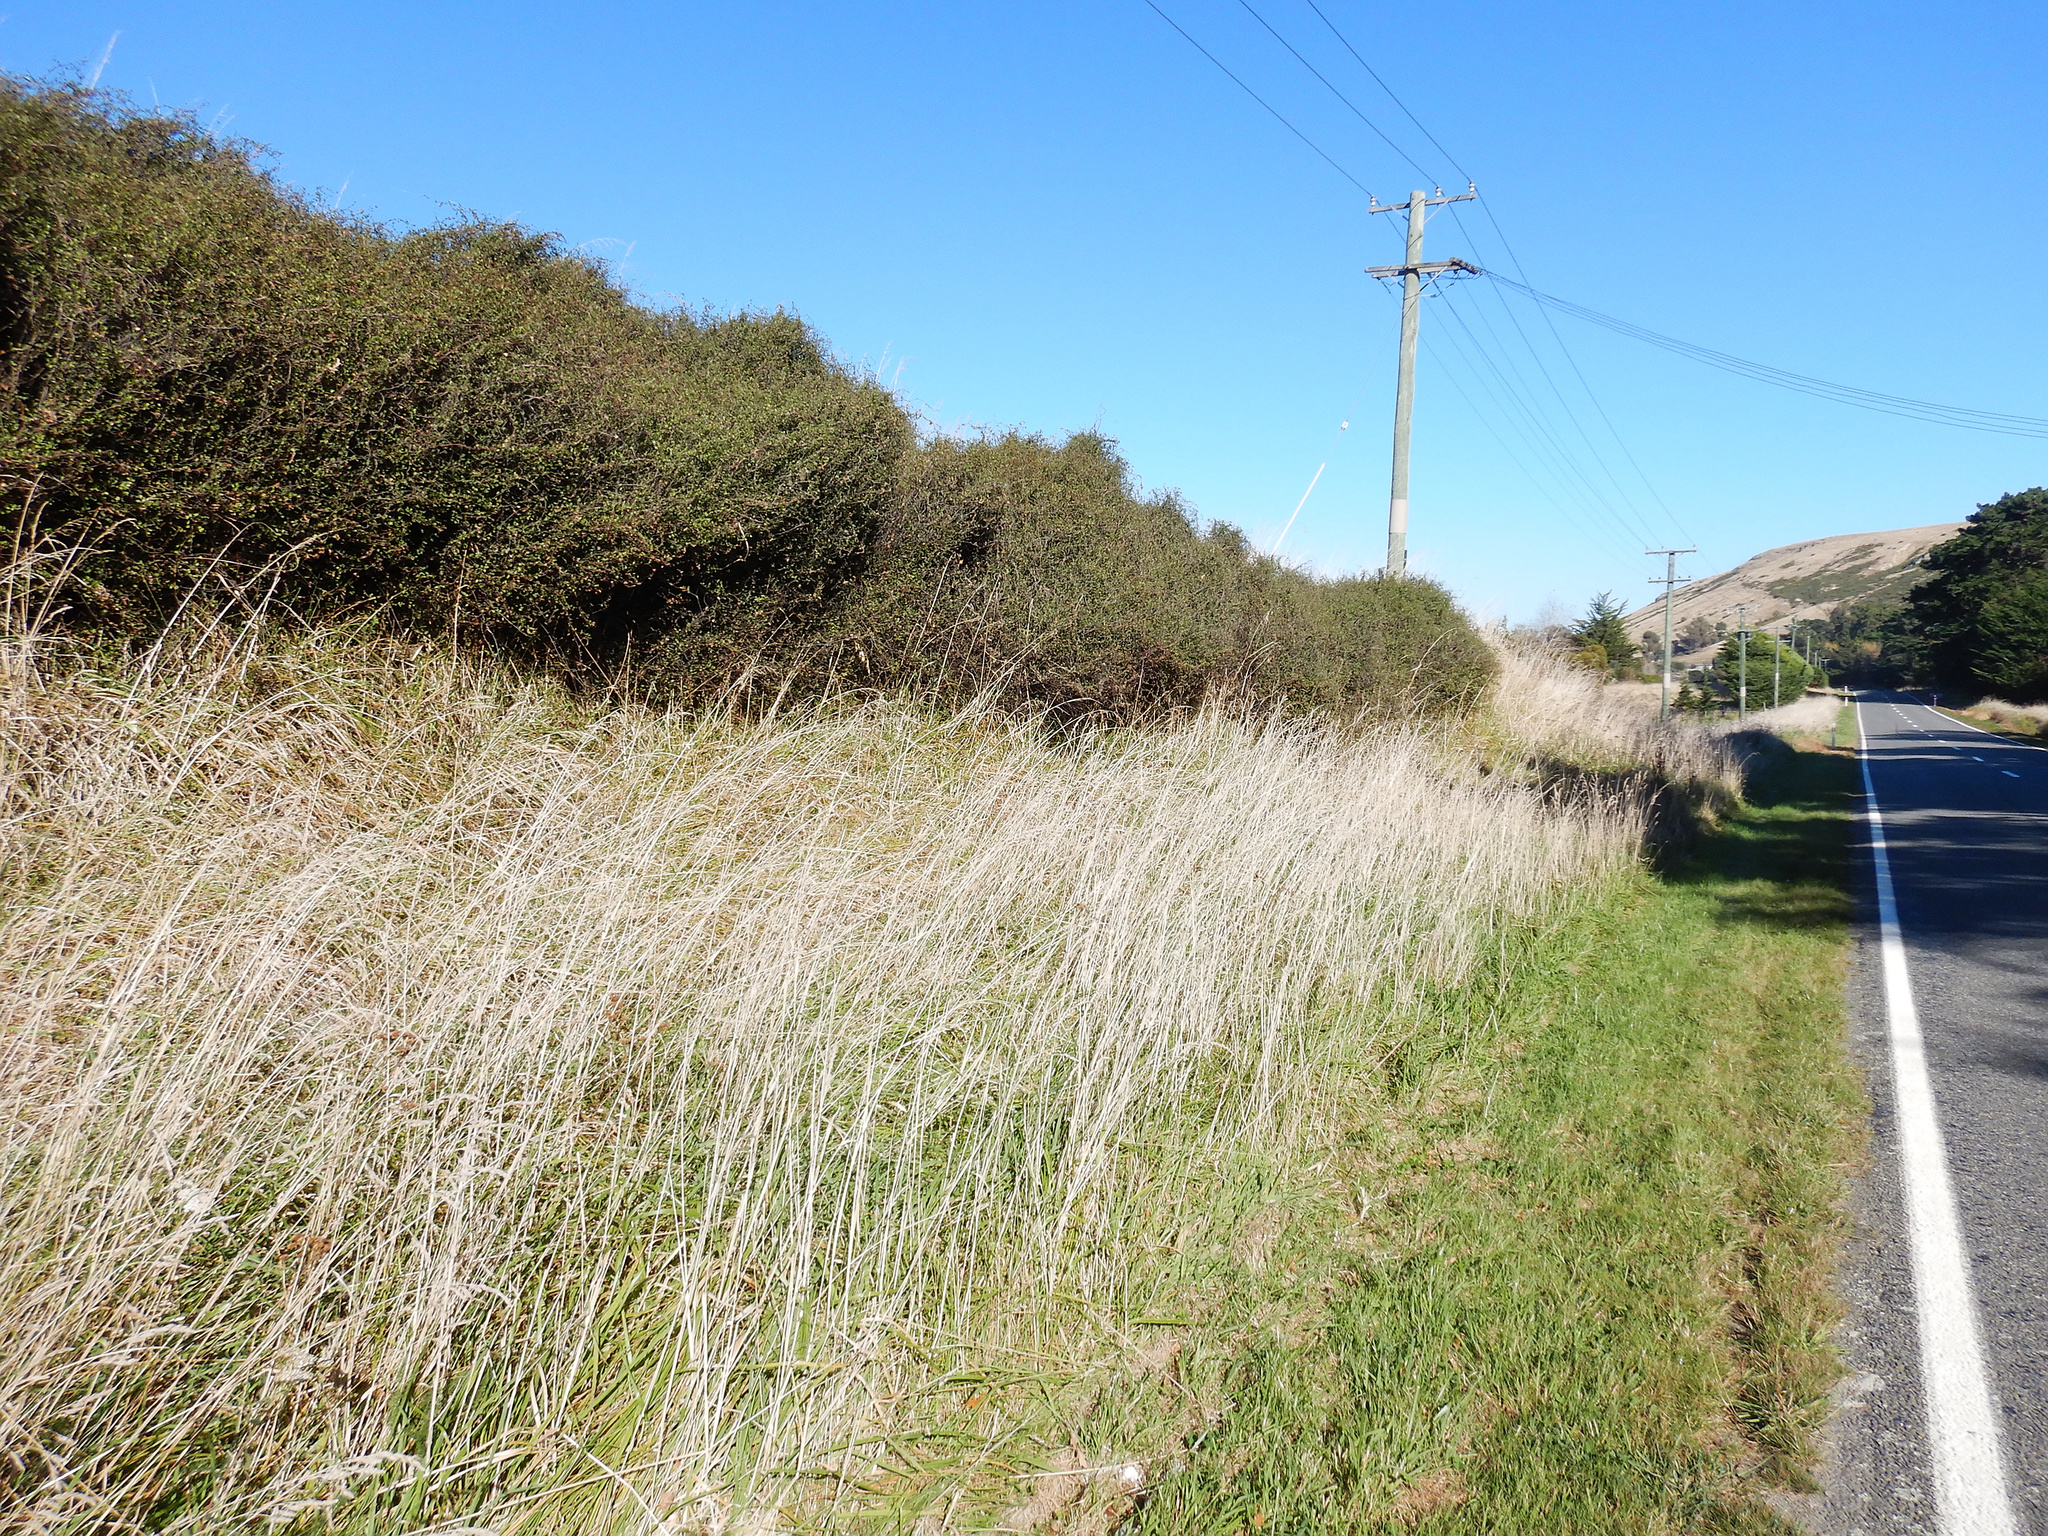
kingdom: Plantae
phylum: Tracheophyta
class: Magnoliopsida
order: Caryophyllales
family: Polygonaceae
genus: Muehlenbeckia
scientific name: Muehlenbeckia complexa
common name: Wireplant
